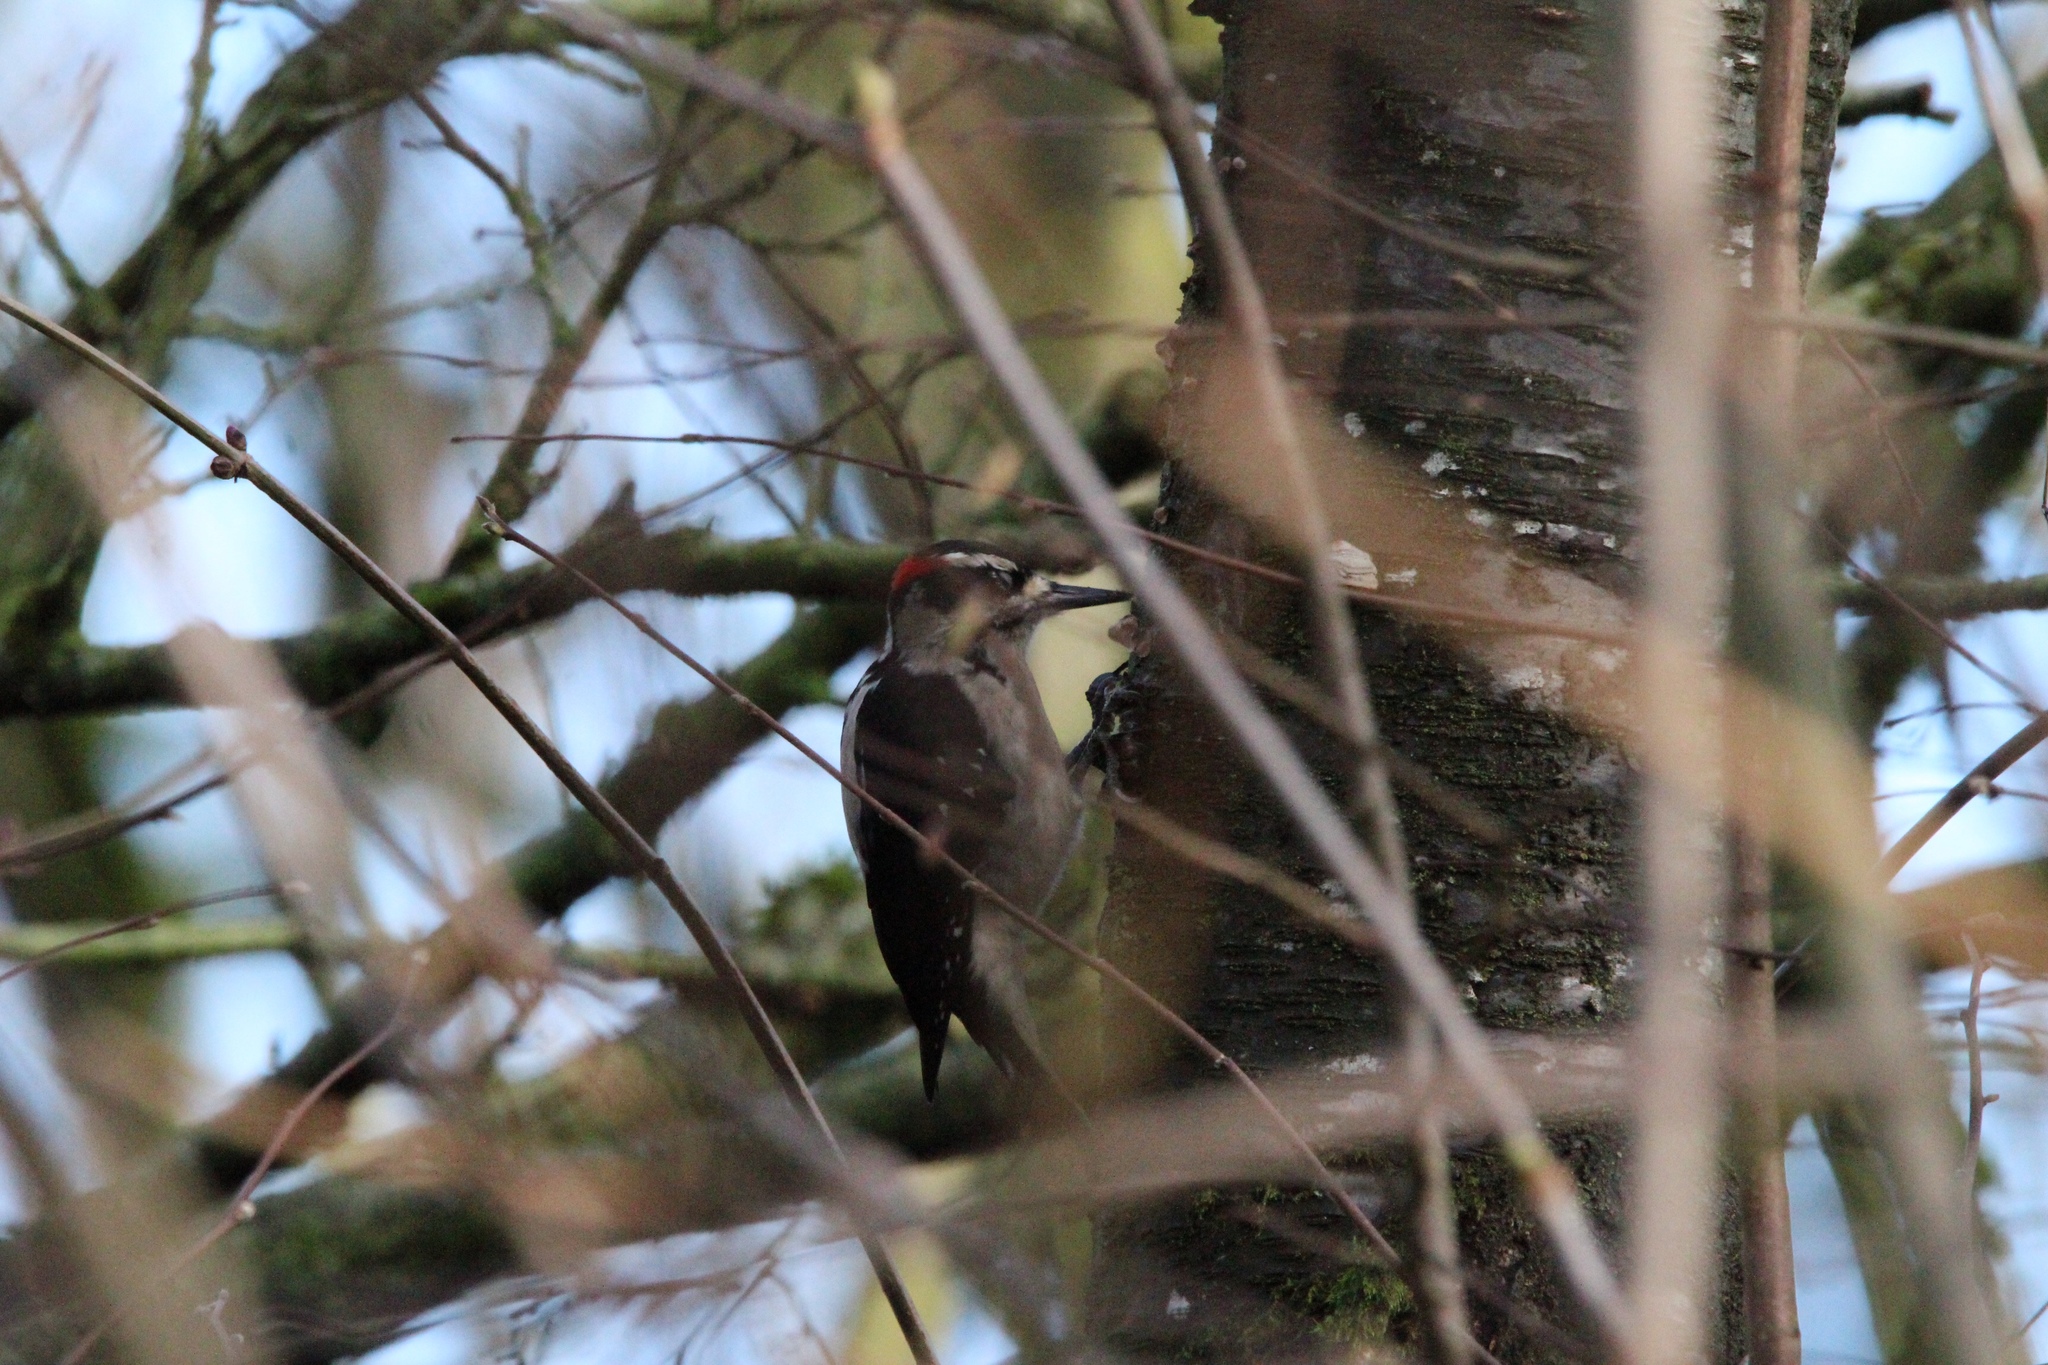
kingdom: Animalia
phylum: Chordata
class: Aves
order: Piciformes
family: Picidae
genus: Leuconotopicus
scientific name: Leuconotopicus villosus
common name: Hairy woodpecker
